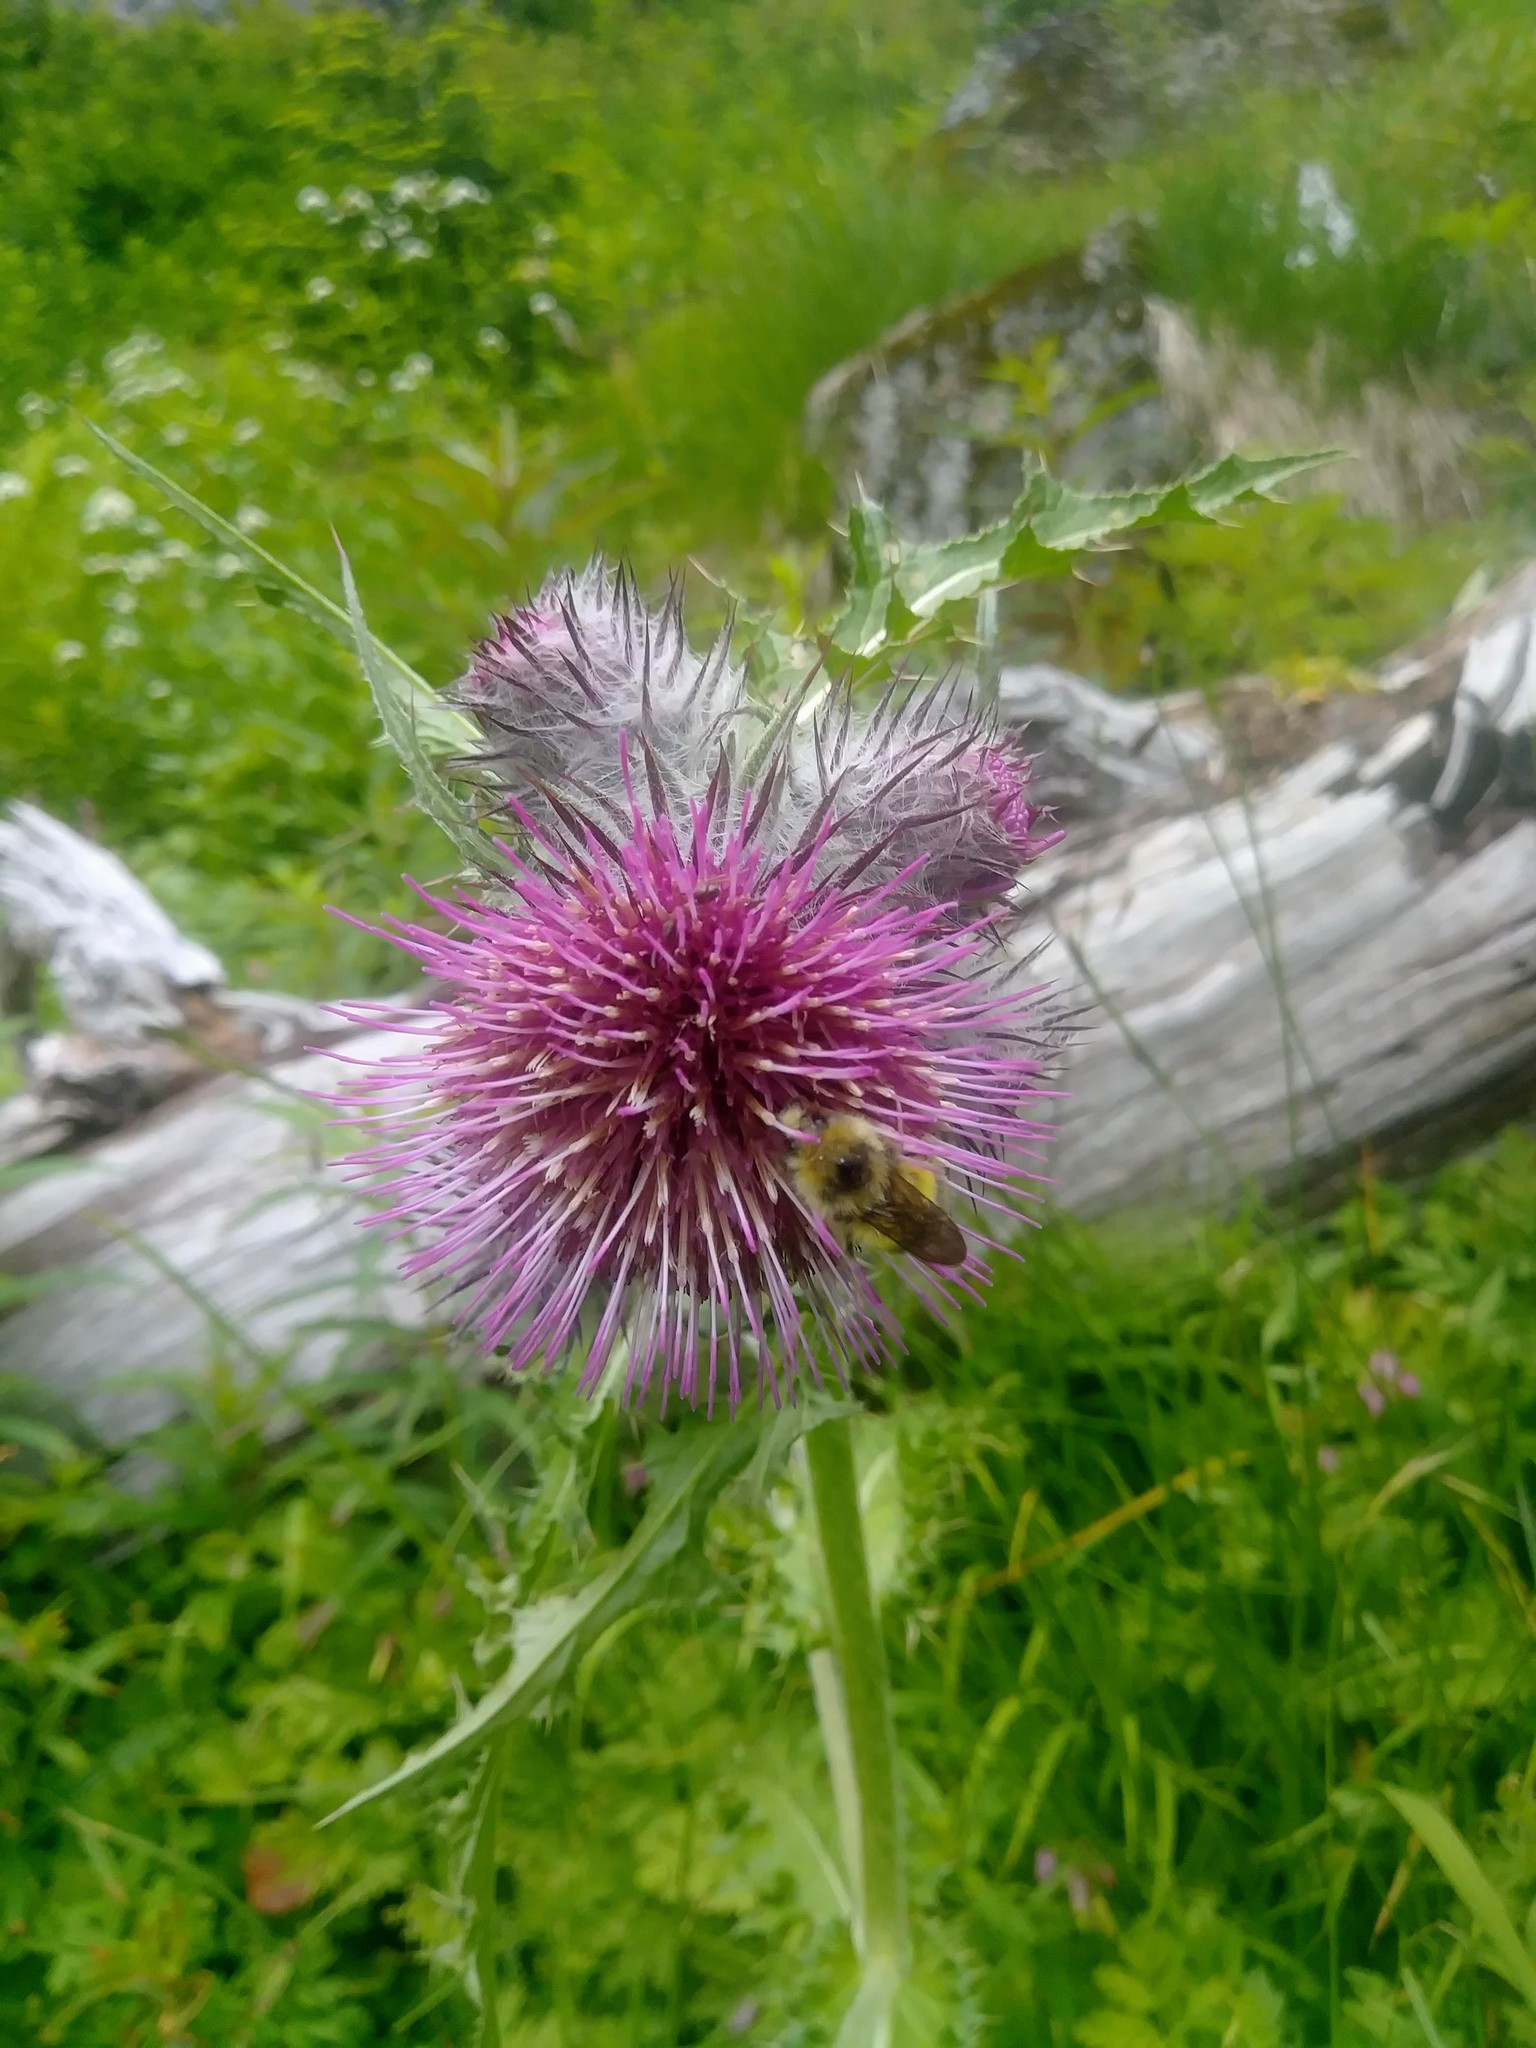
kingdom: Plantae
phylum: Tracheophyta
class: Magnoliopsida
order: Asterales
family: Asteraceae
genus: Cirsium
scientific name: Cirsium edule
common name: Indian thistle
